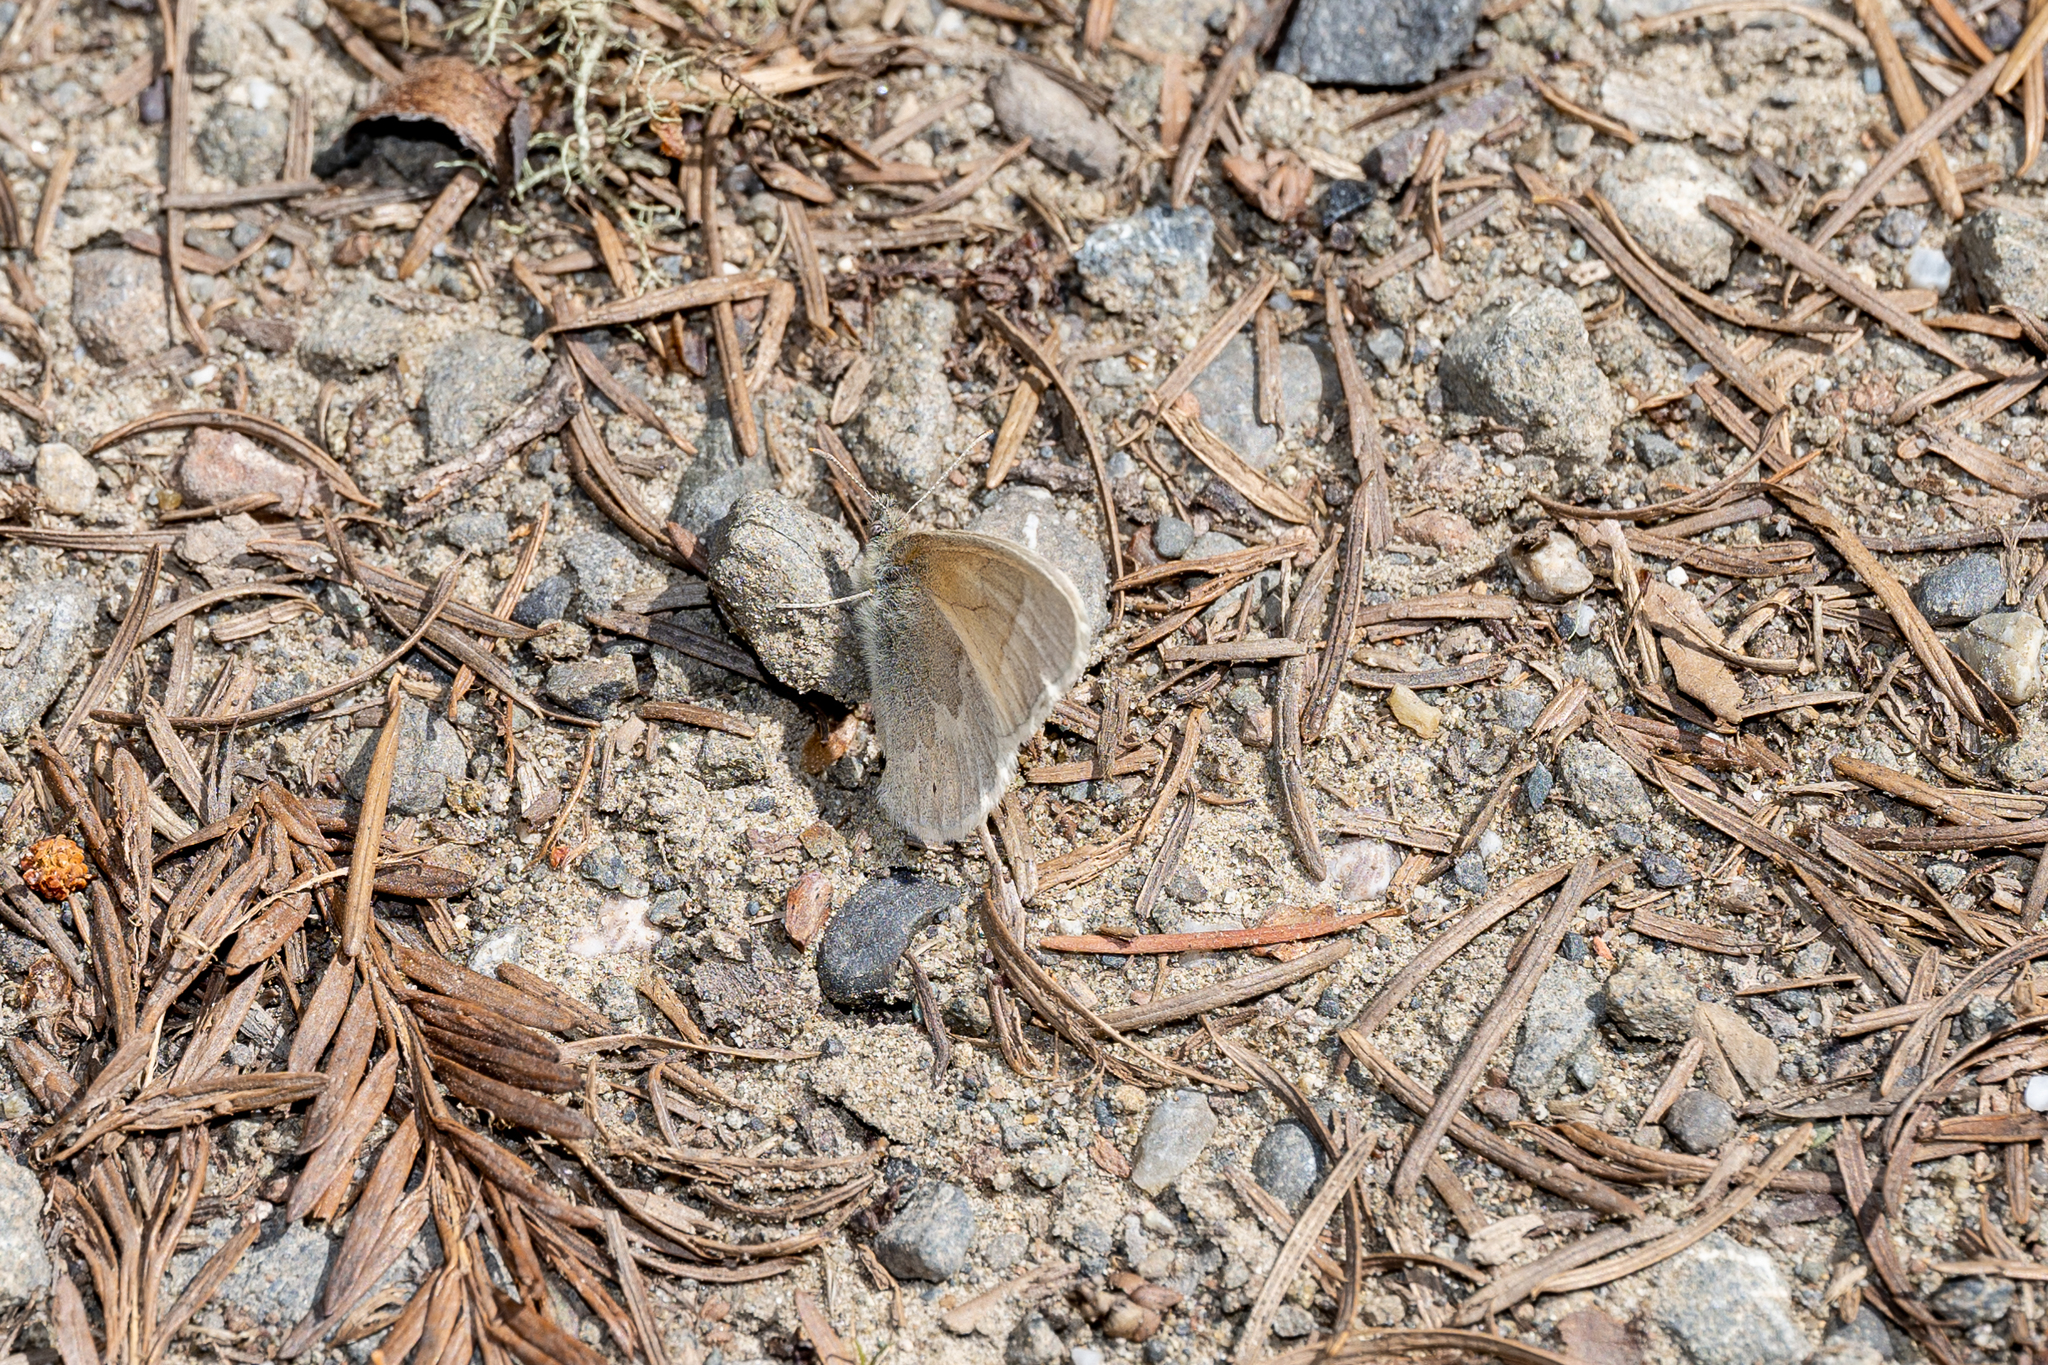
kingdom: Animalia
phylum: Arthropoda
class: Insecta
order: Lepidoptera
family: Nymphalidae
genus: Coenonympha
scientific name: Coenonympha california
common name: Common ringlet
